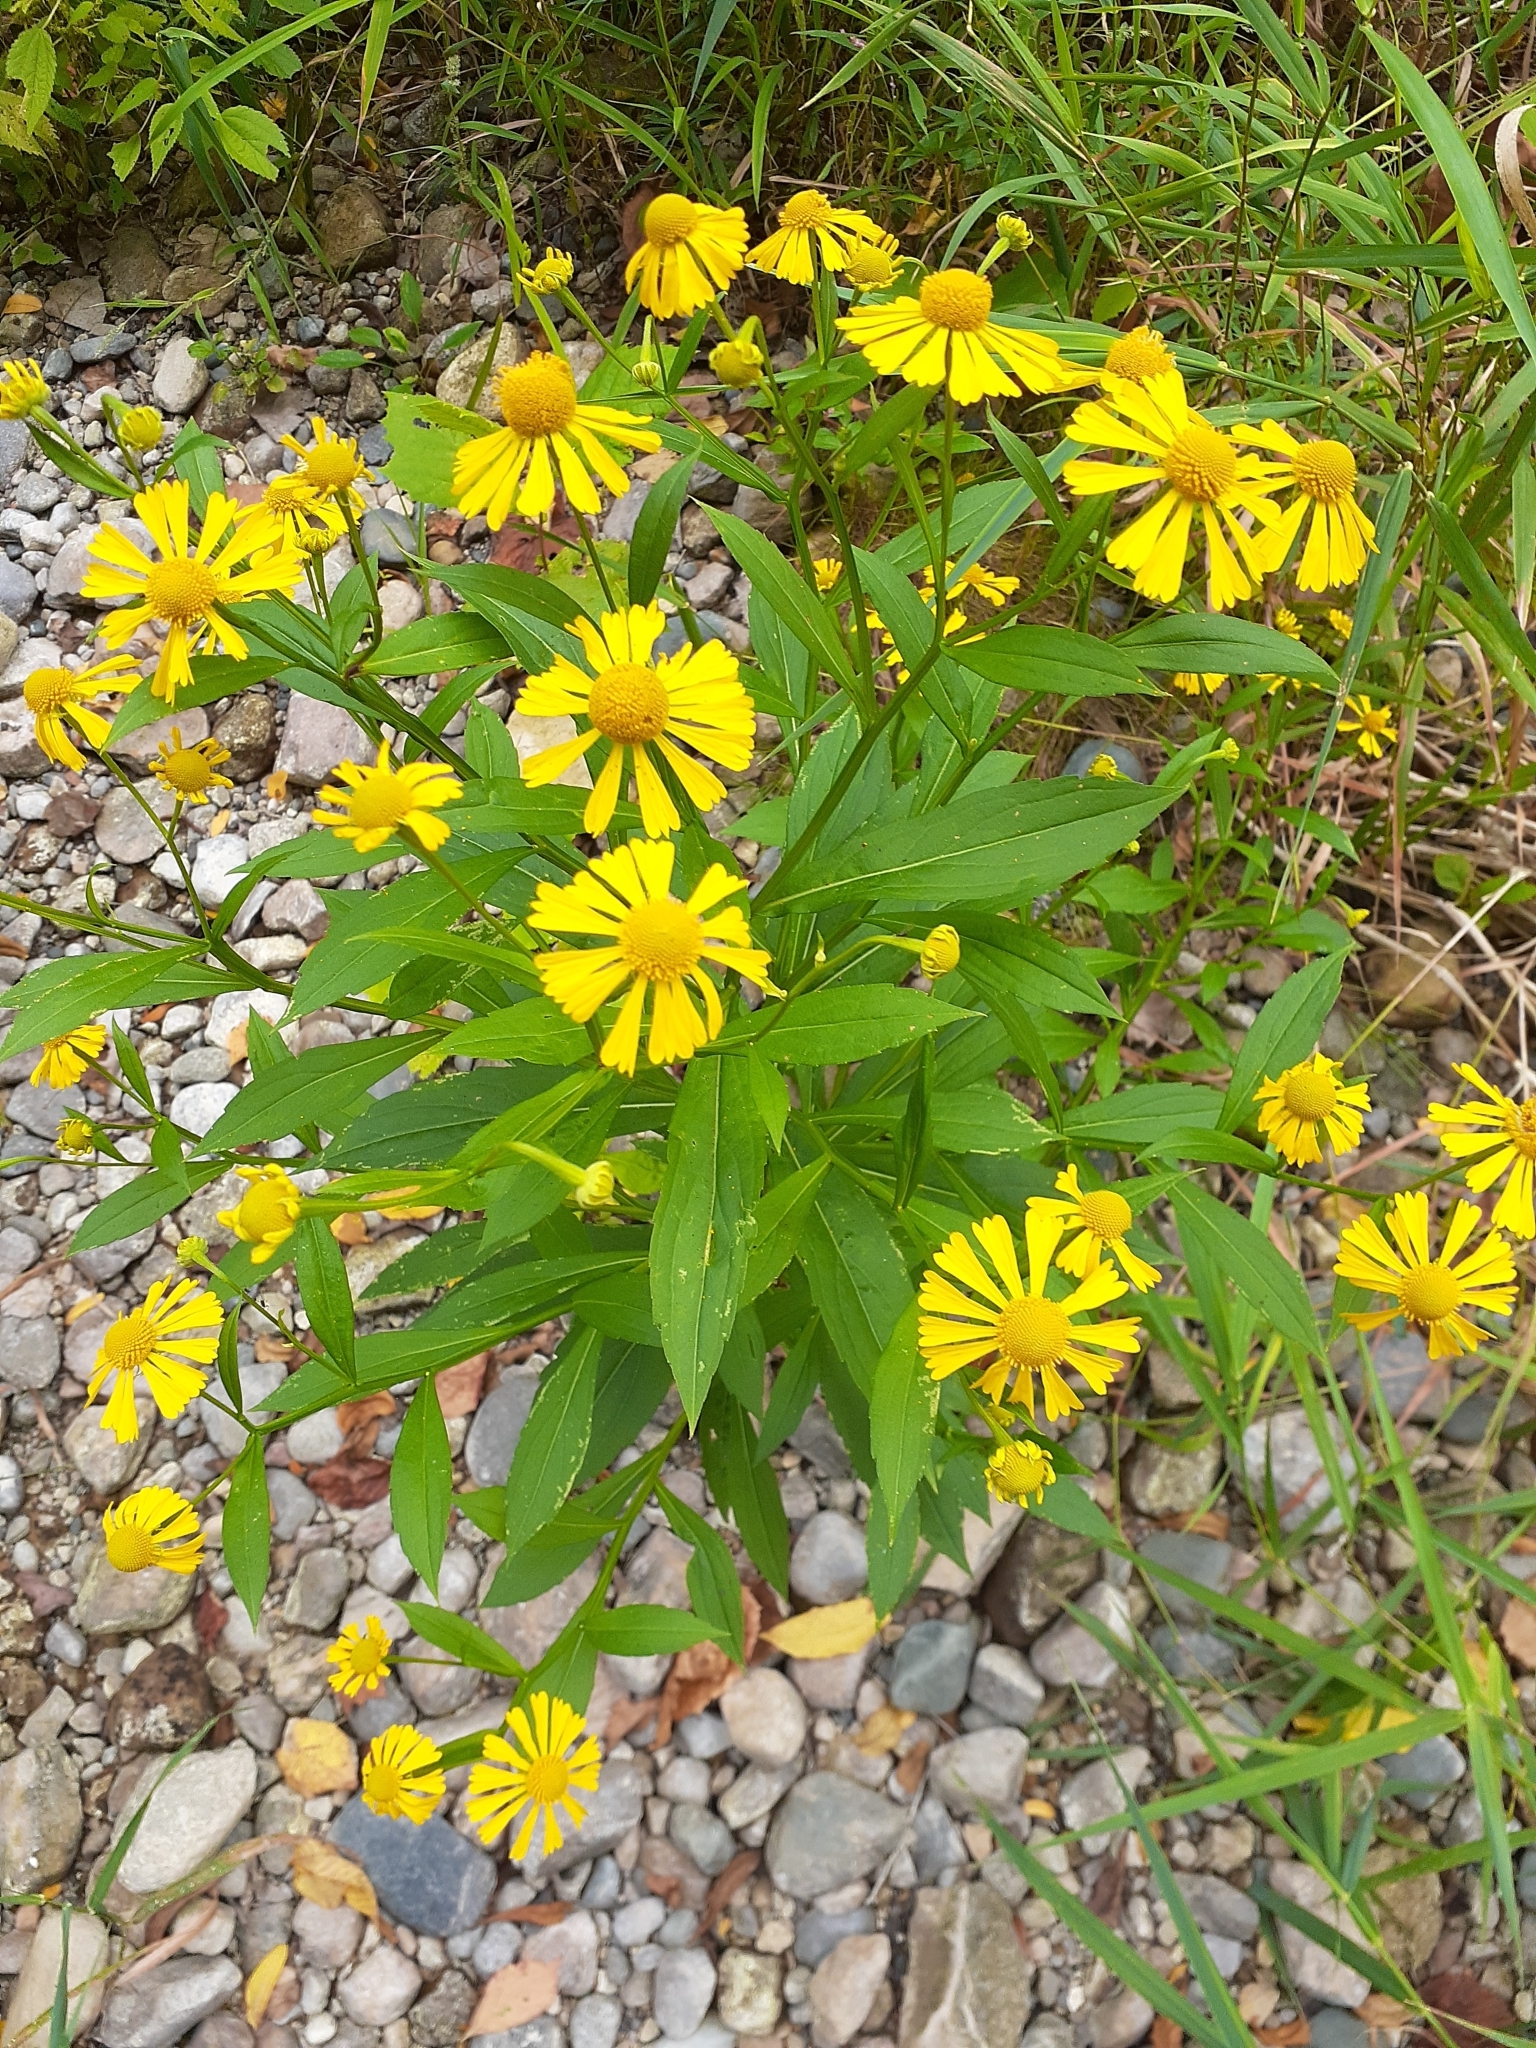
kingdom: Plantae
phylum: Tracheophyta
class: Magnoliopsida
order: Asterales
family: Asteraceae
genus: Helenium
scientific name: Helenium autumnale
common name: Sneezeweed
